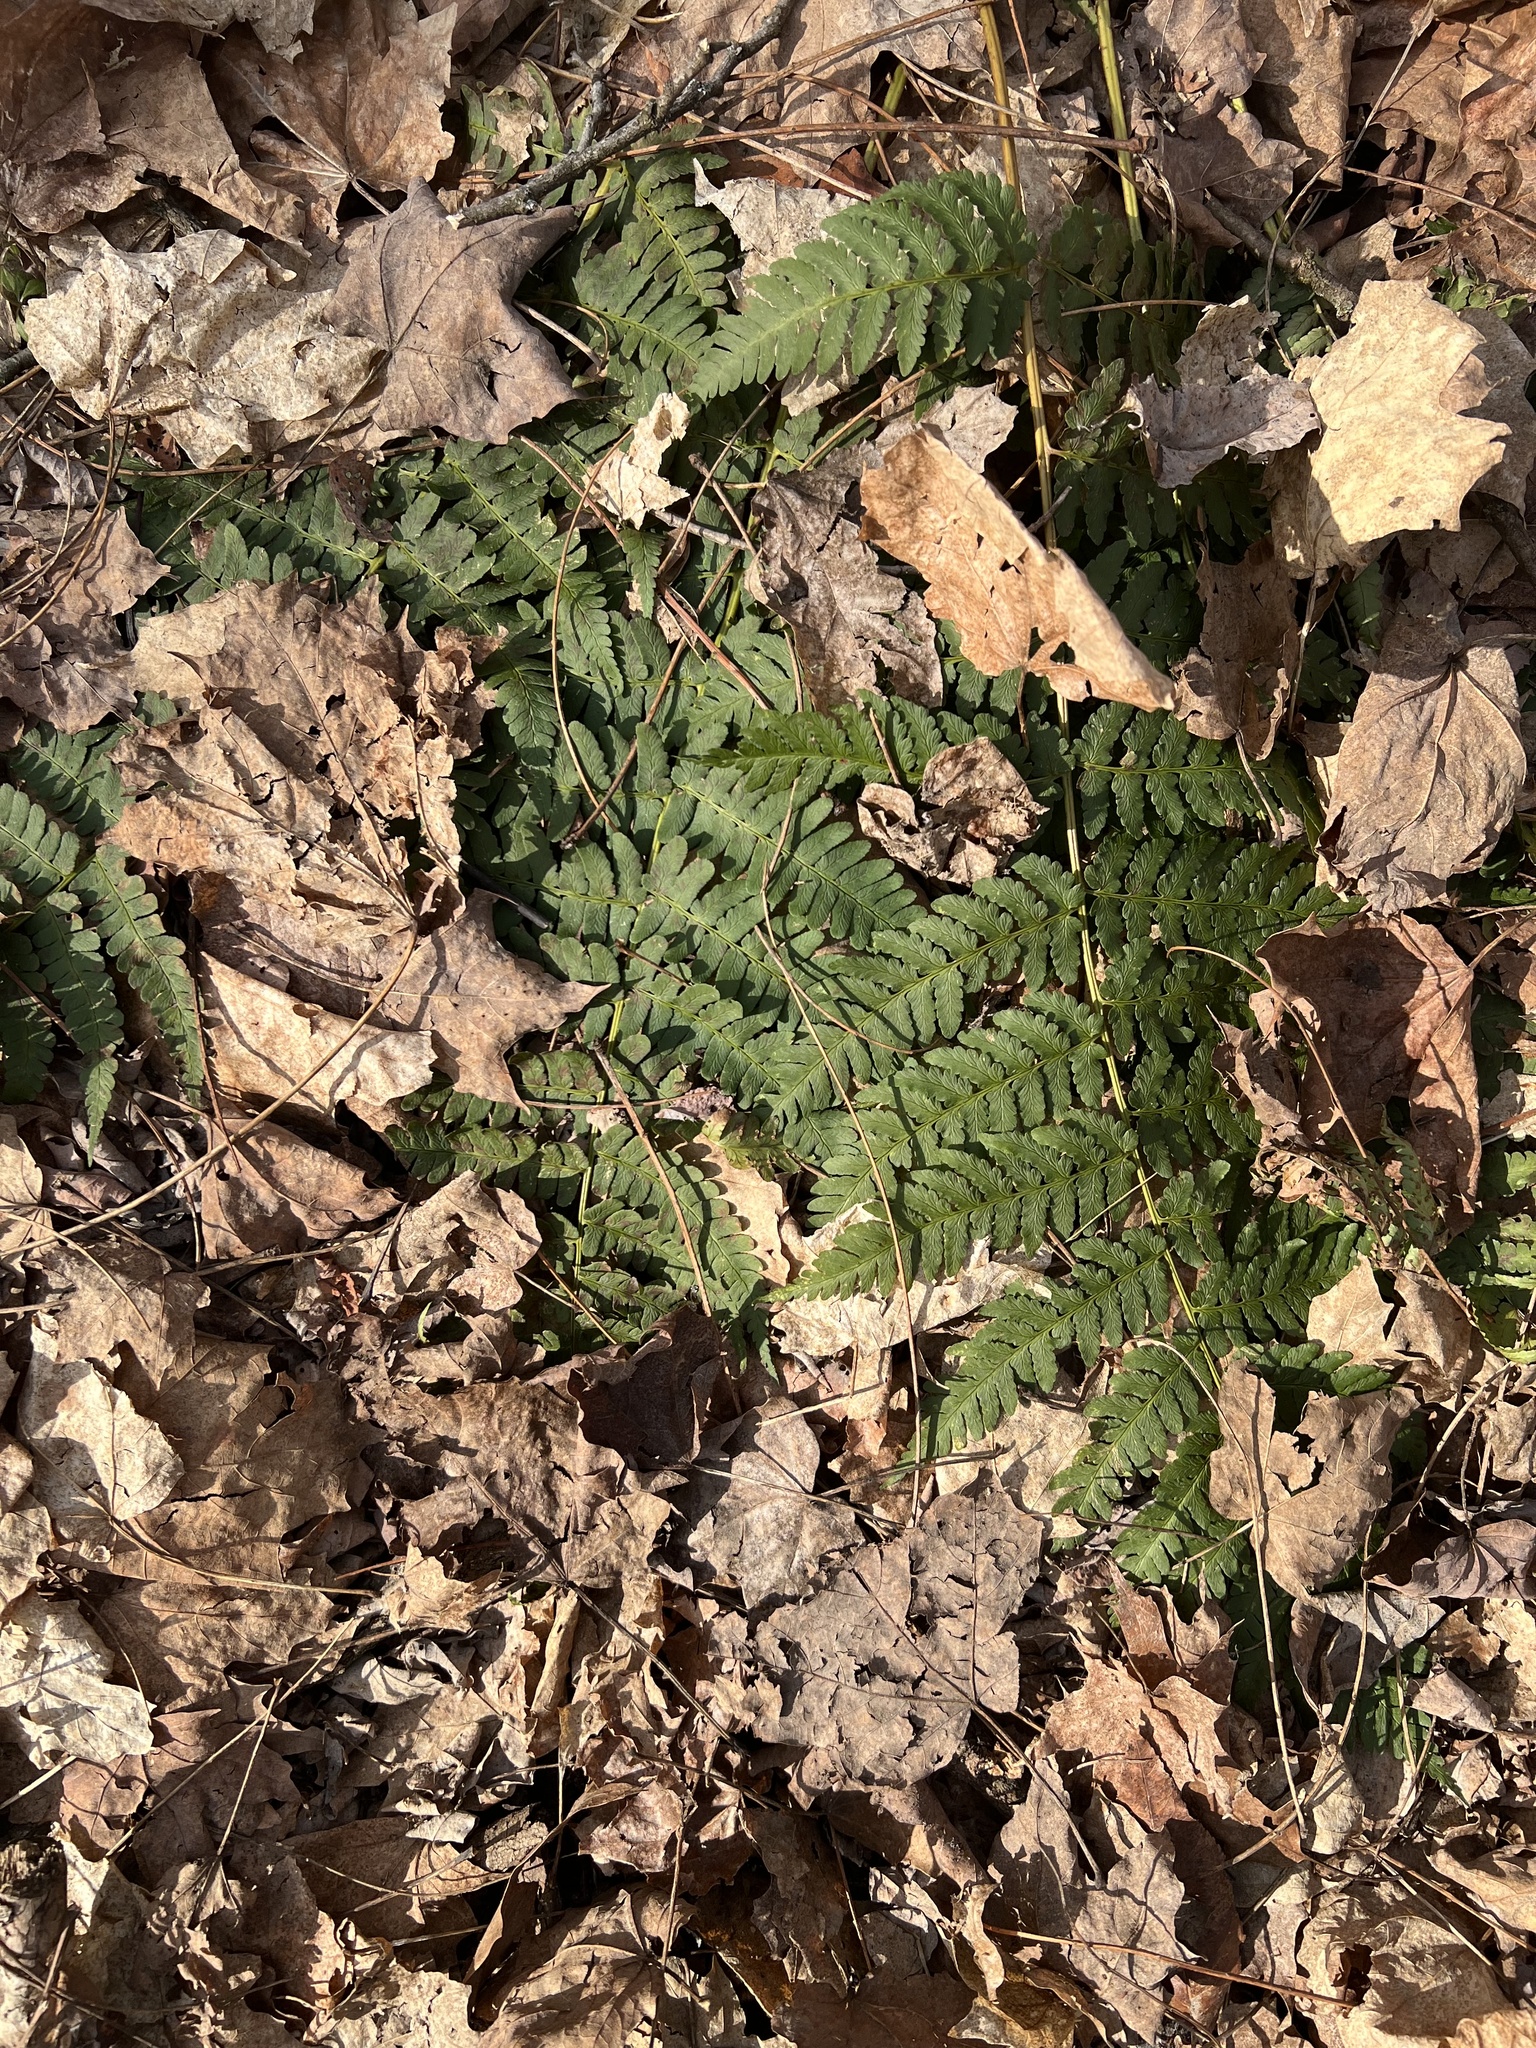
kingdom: Plantae
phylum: Tracheophyta
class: Polypodiopsida
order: Polypodiales
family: Dryopteridaceae
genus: Dryopteris
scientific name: Dryopteris marginalis
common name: Marginal wood fern
